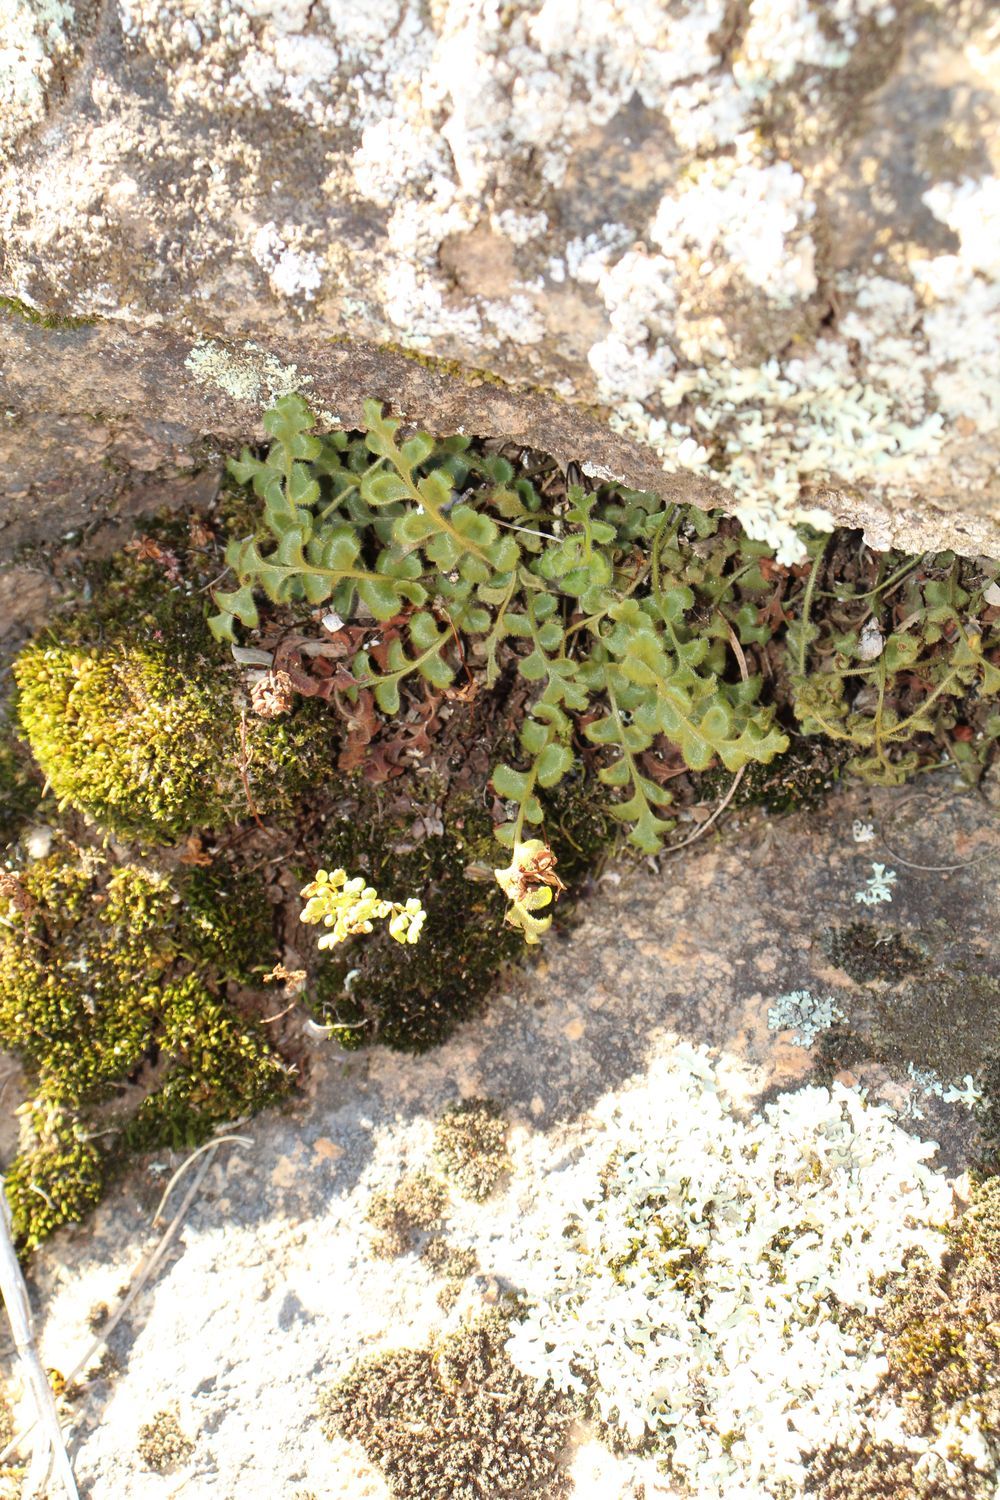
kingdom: Plantae
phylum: Tracheophyta
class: Polypodiopsida
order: Polypodiales
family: Aspleniaceae
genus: Asplenium
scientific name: Asplenium subglandulosum
